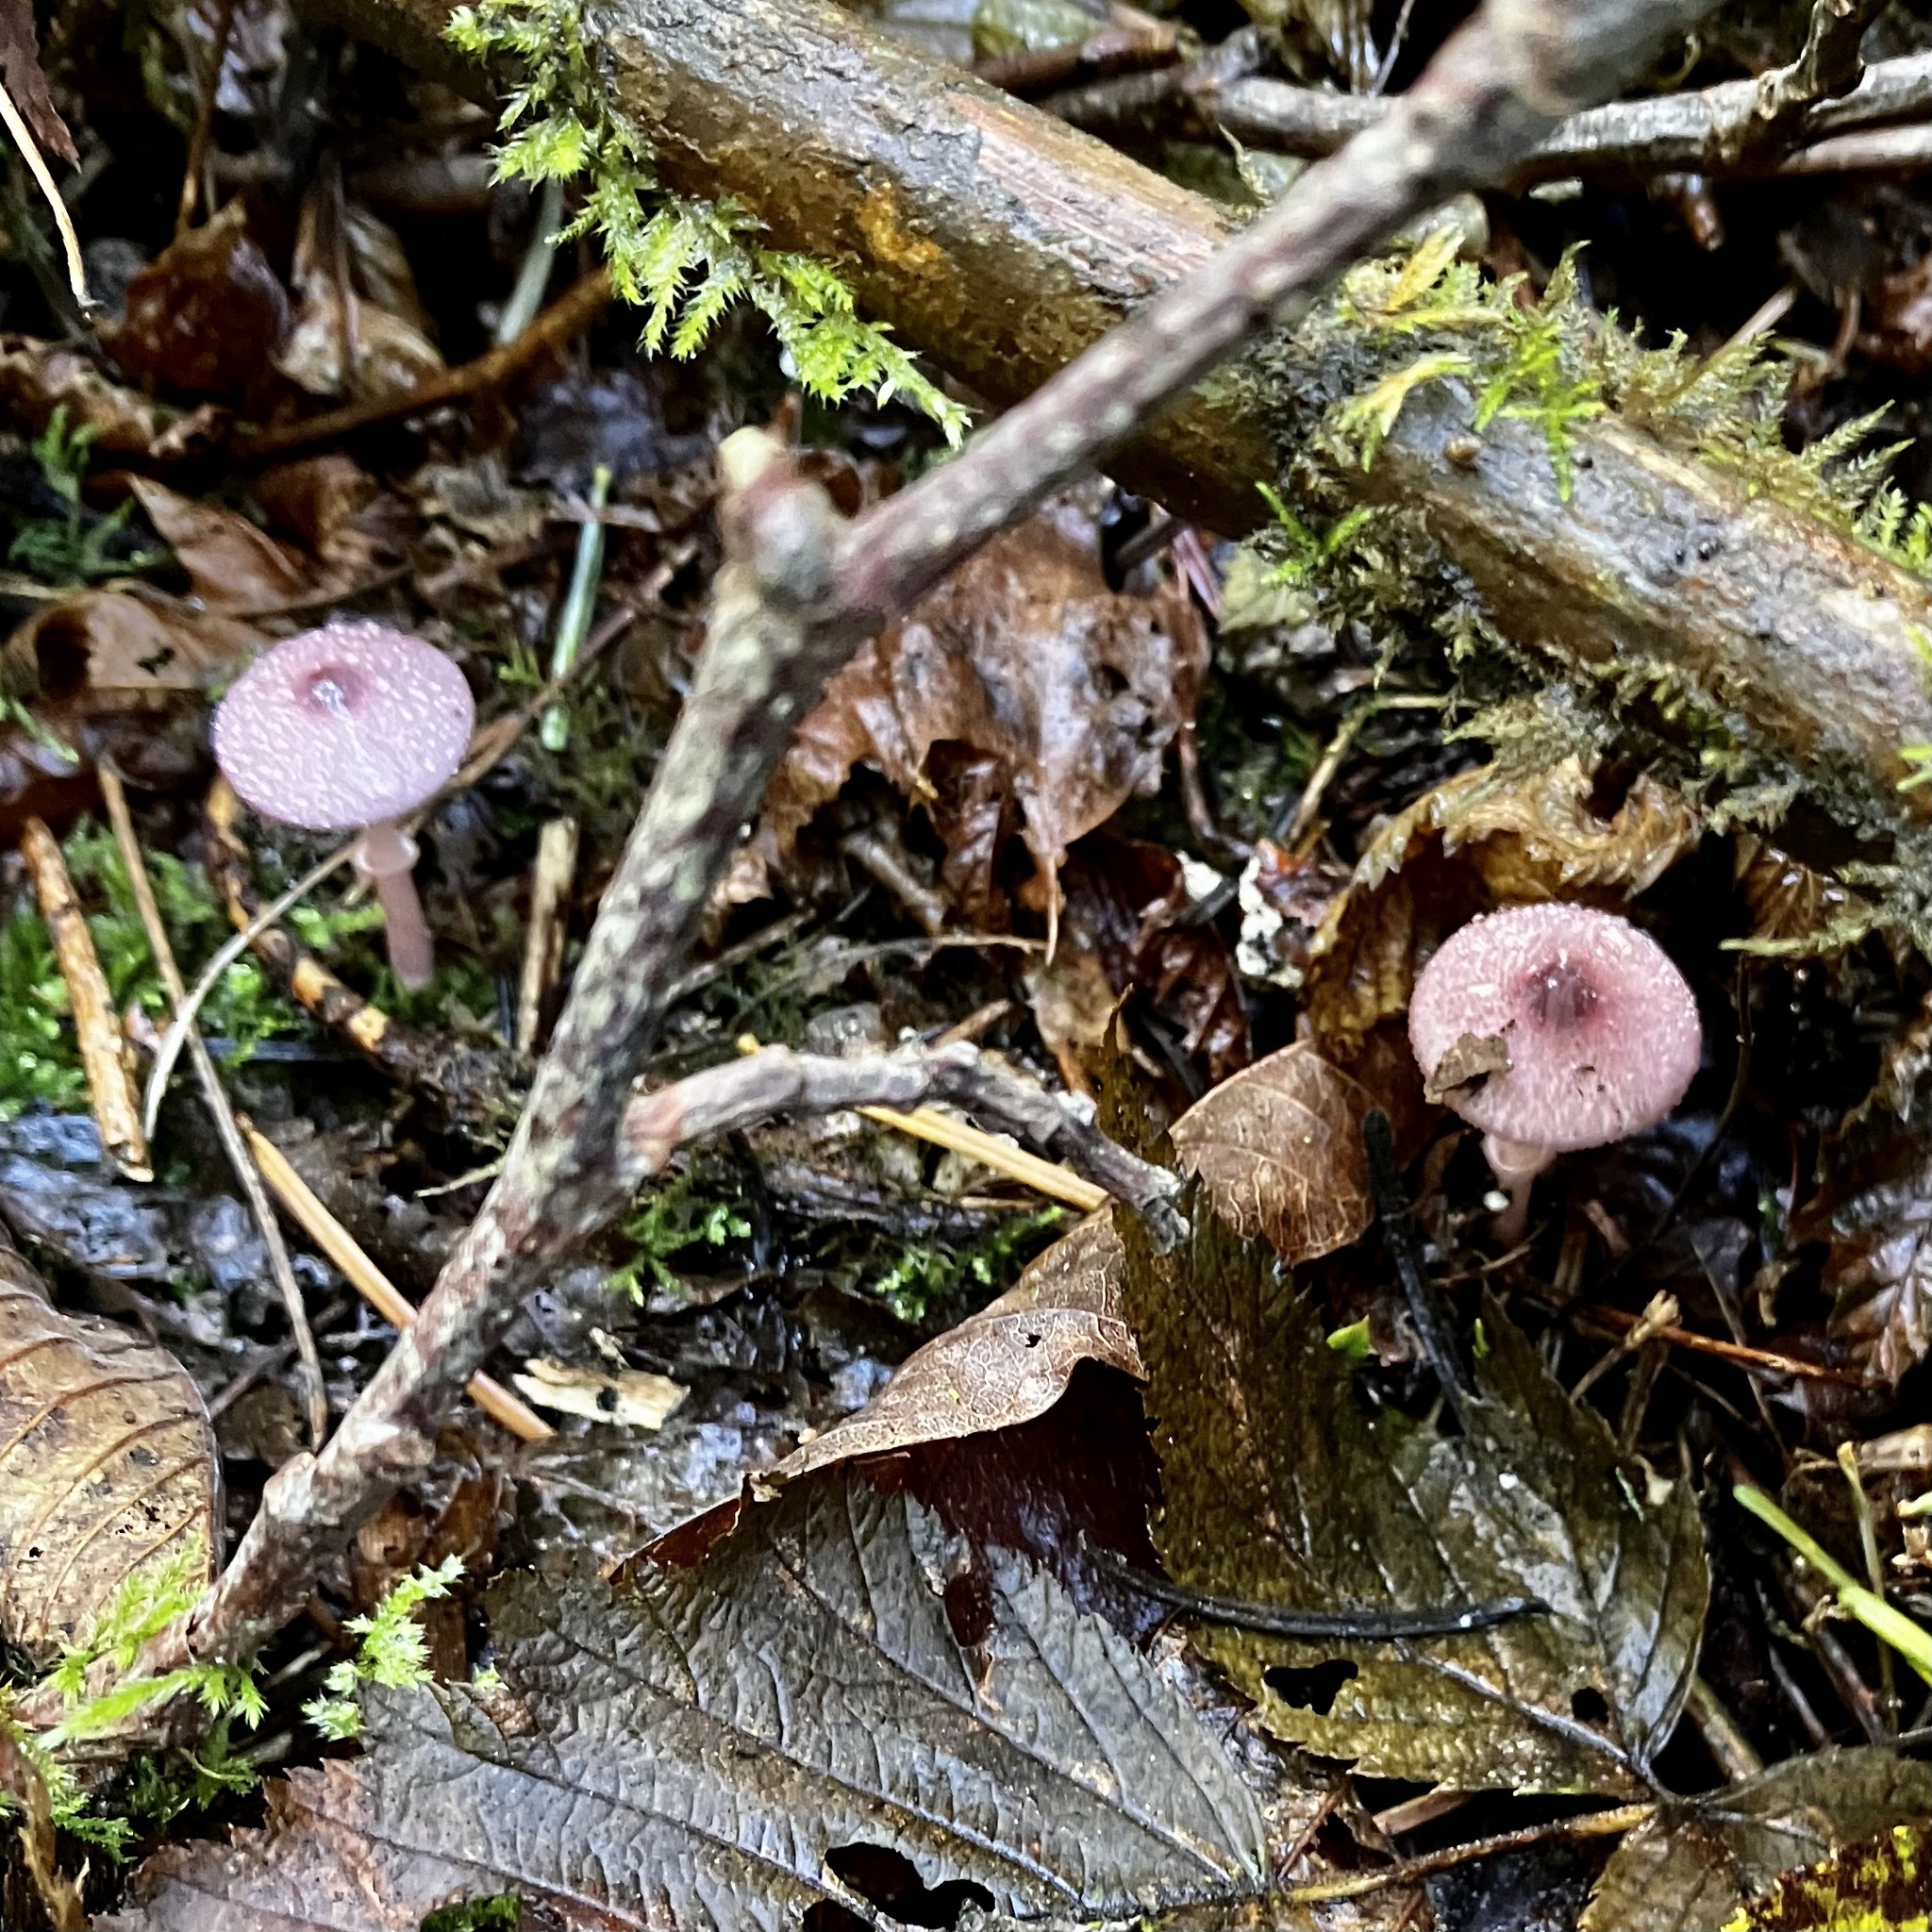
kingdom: Fungi
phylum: Basidiomycota
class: Agaricomycetes
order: Agaricales
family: Agaricaceae
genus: Leucoagaricus
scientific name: Leucoagaricus roseilividus
